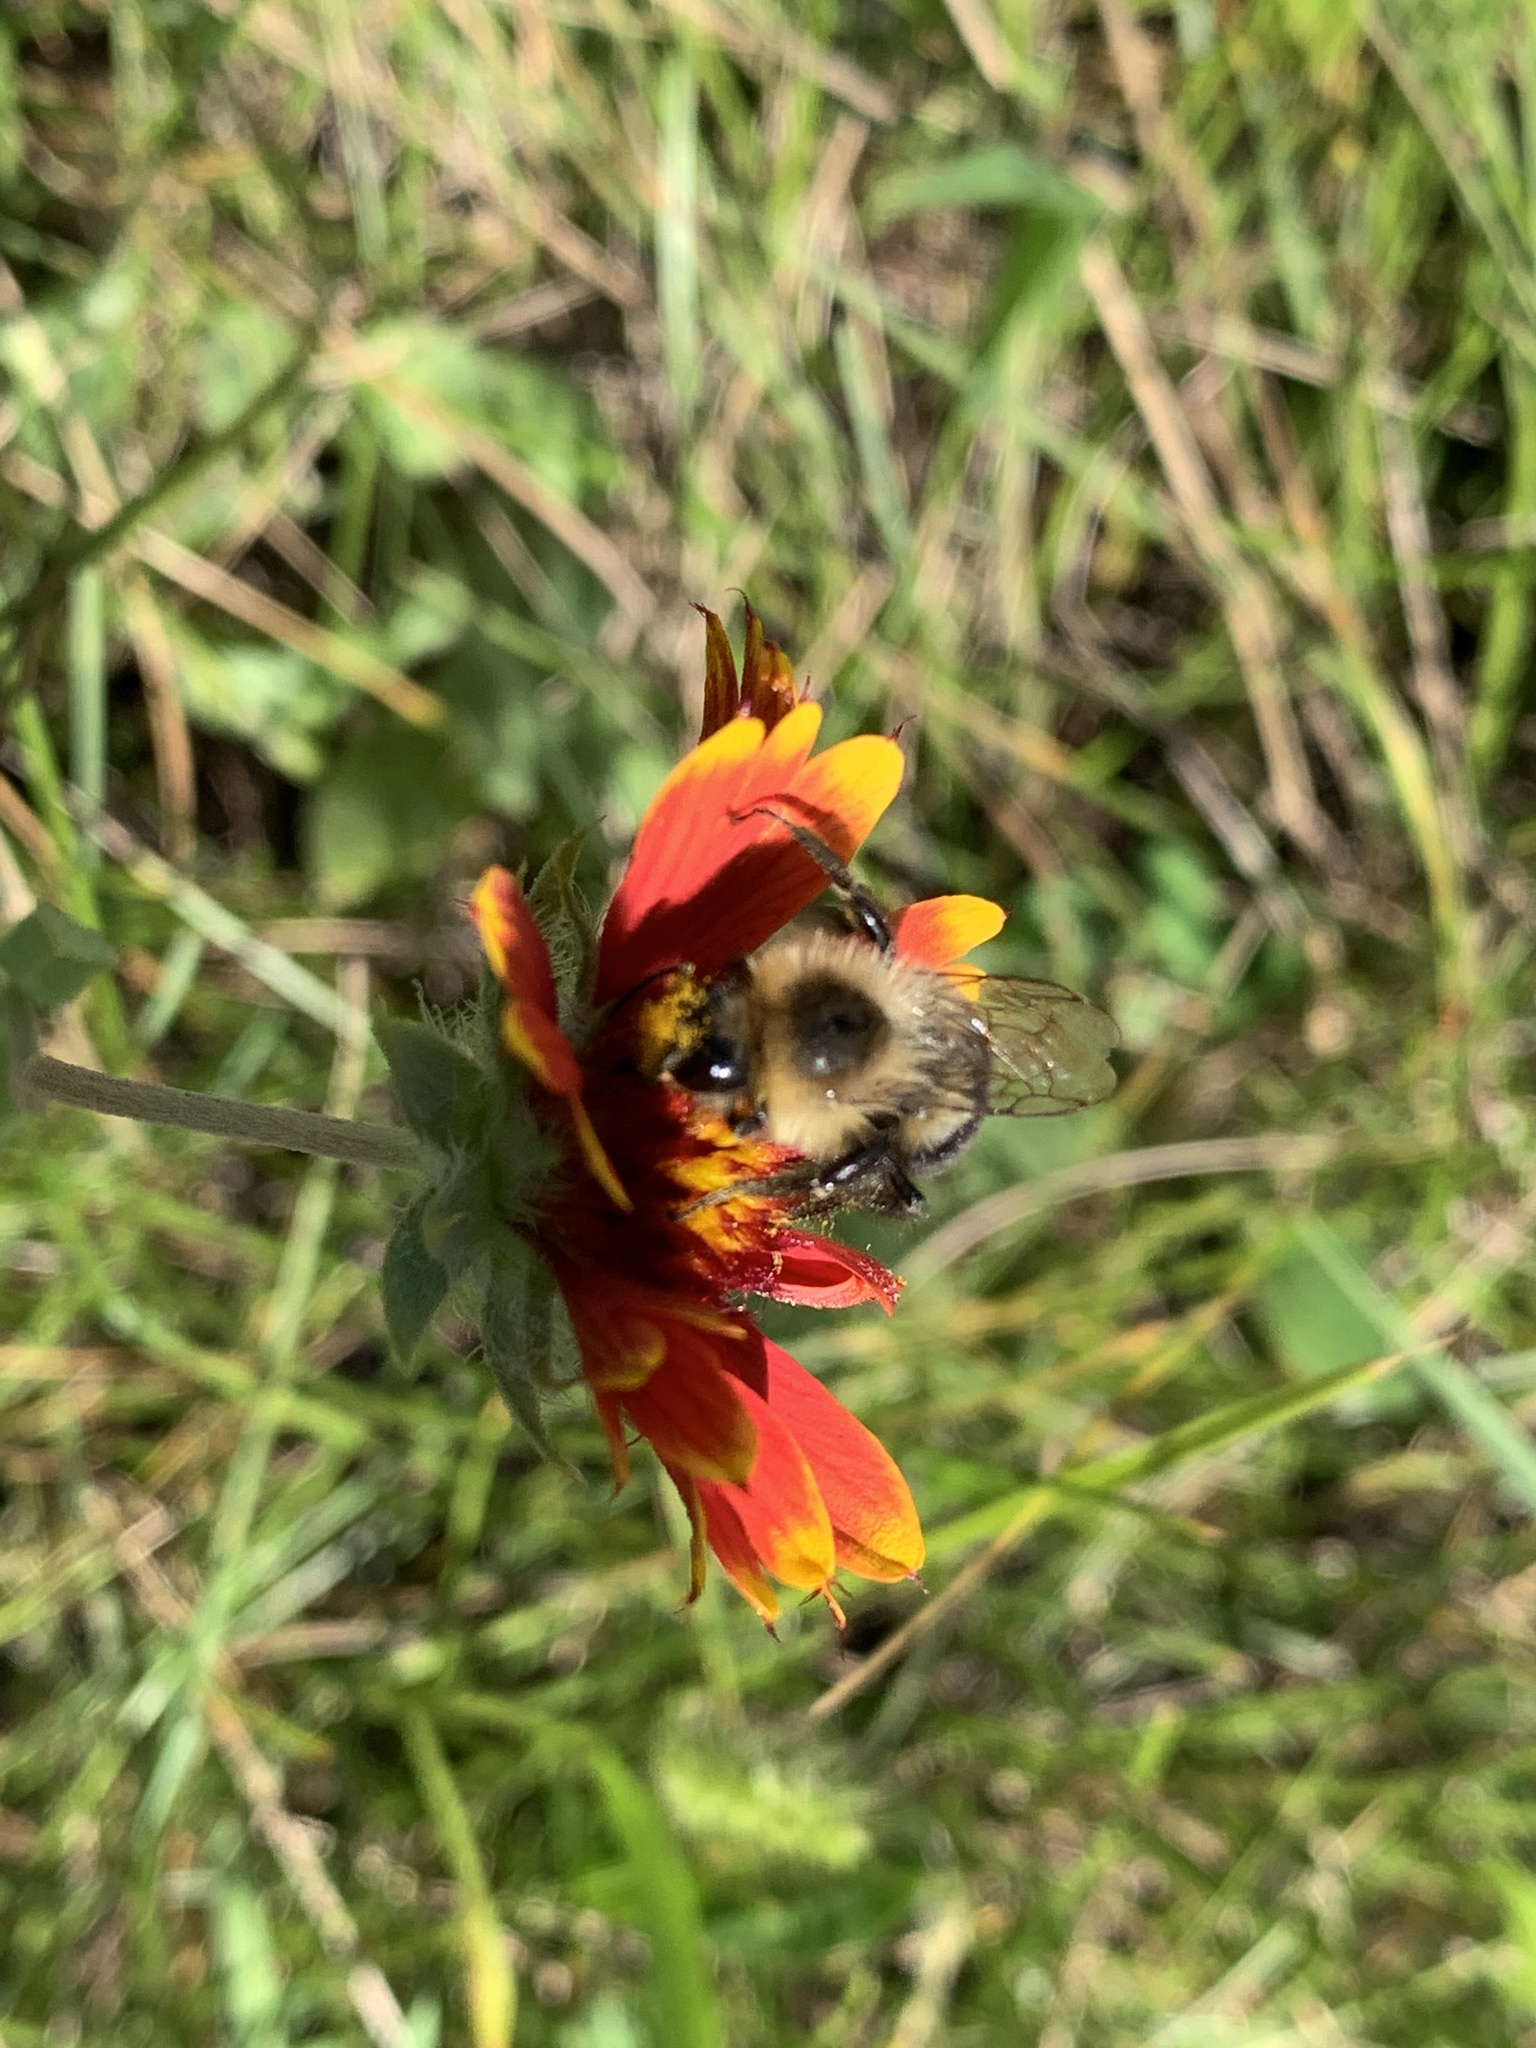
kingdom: Animalia
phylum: Arthropoda
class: Insecta
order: Hymenoptera
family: Apidae
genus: Bombus
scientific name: Bombus impatiens
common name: Common eastern bumble bee
